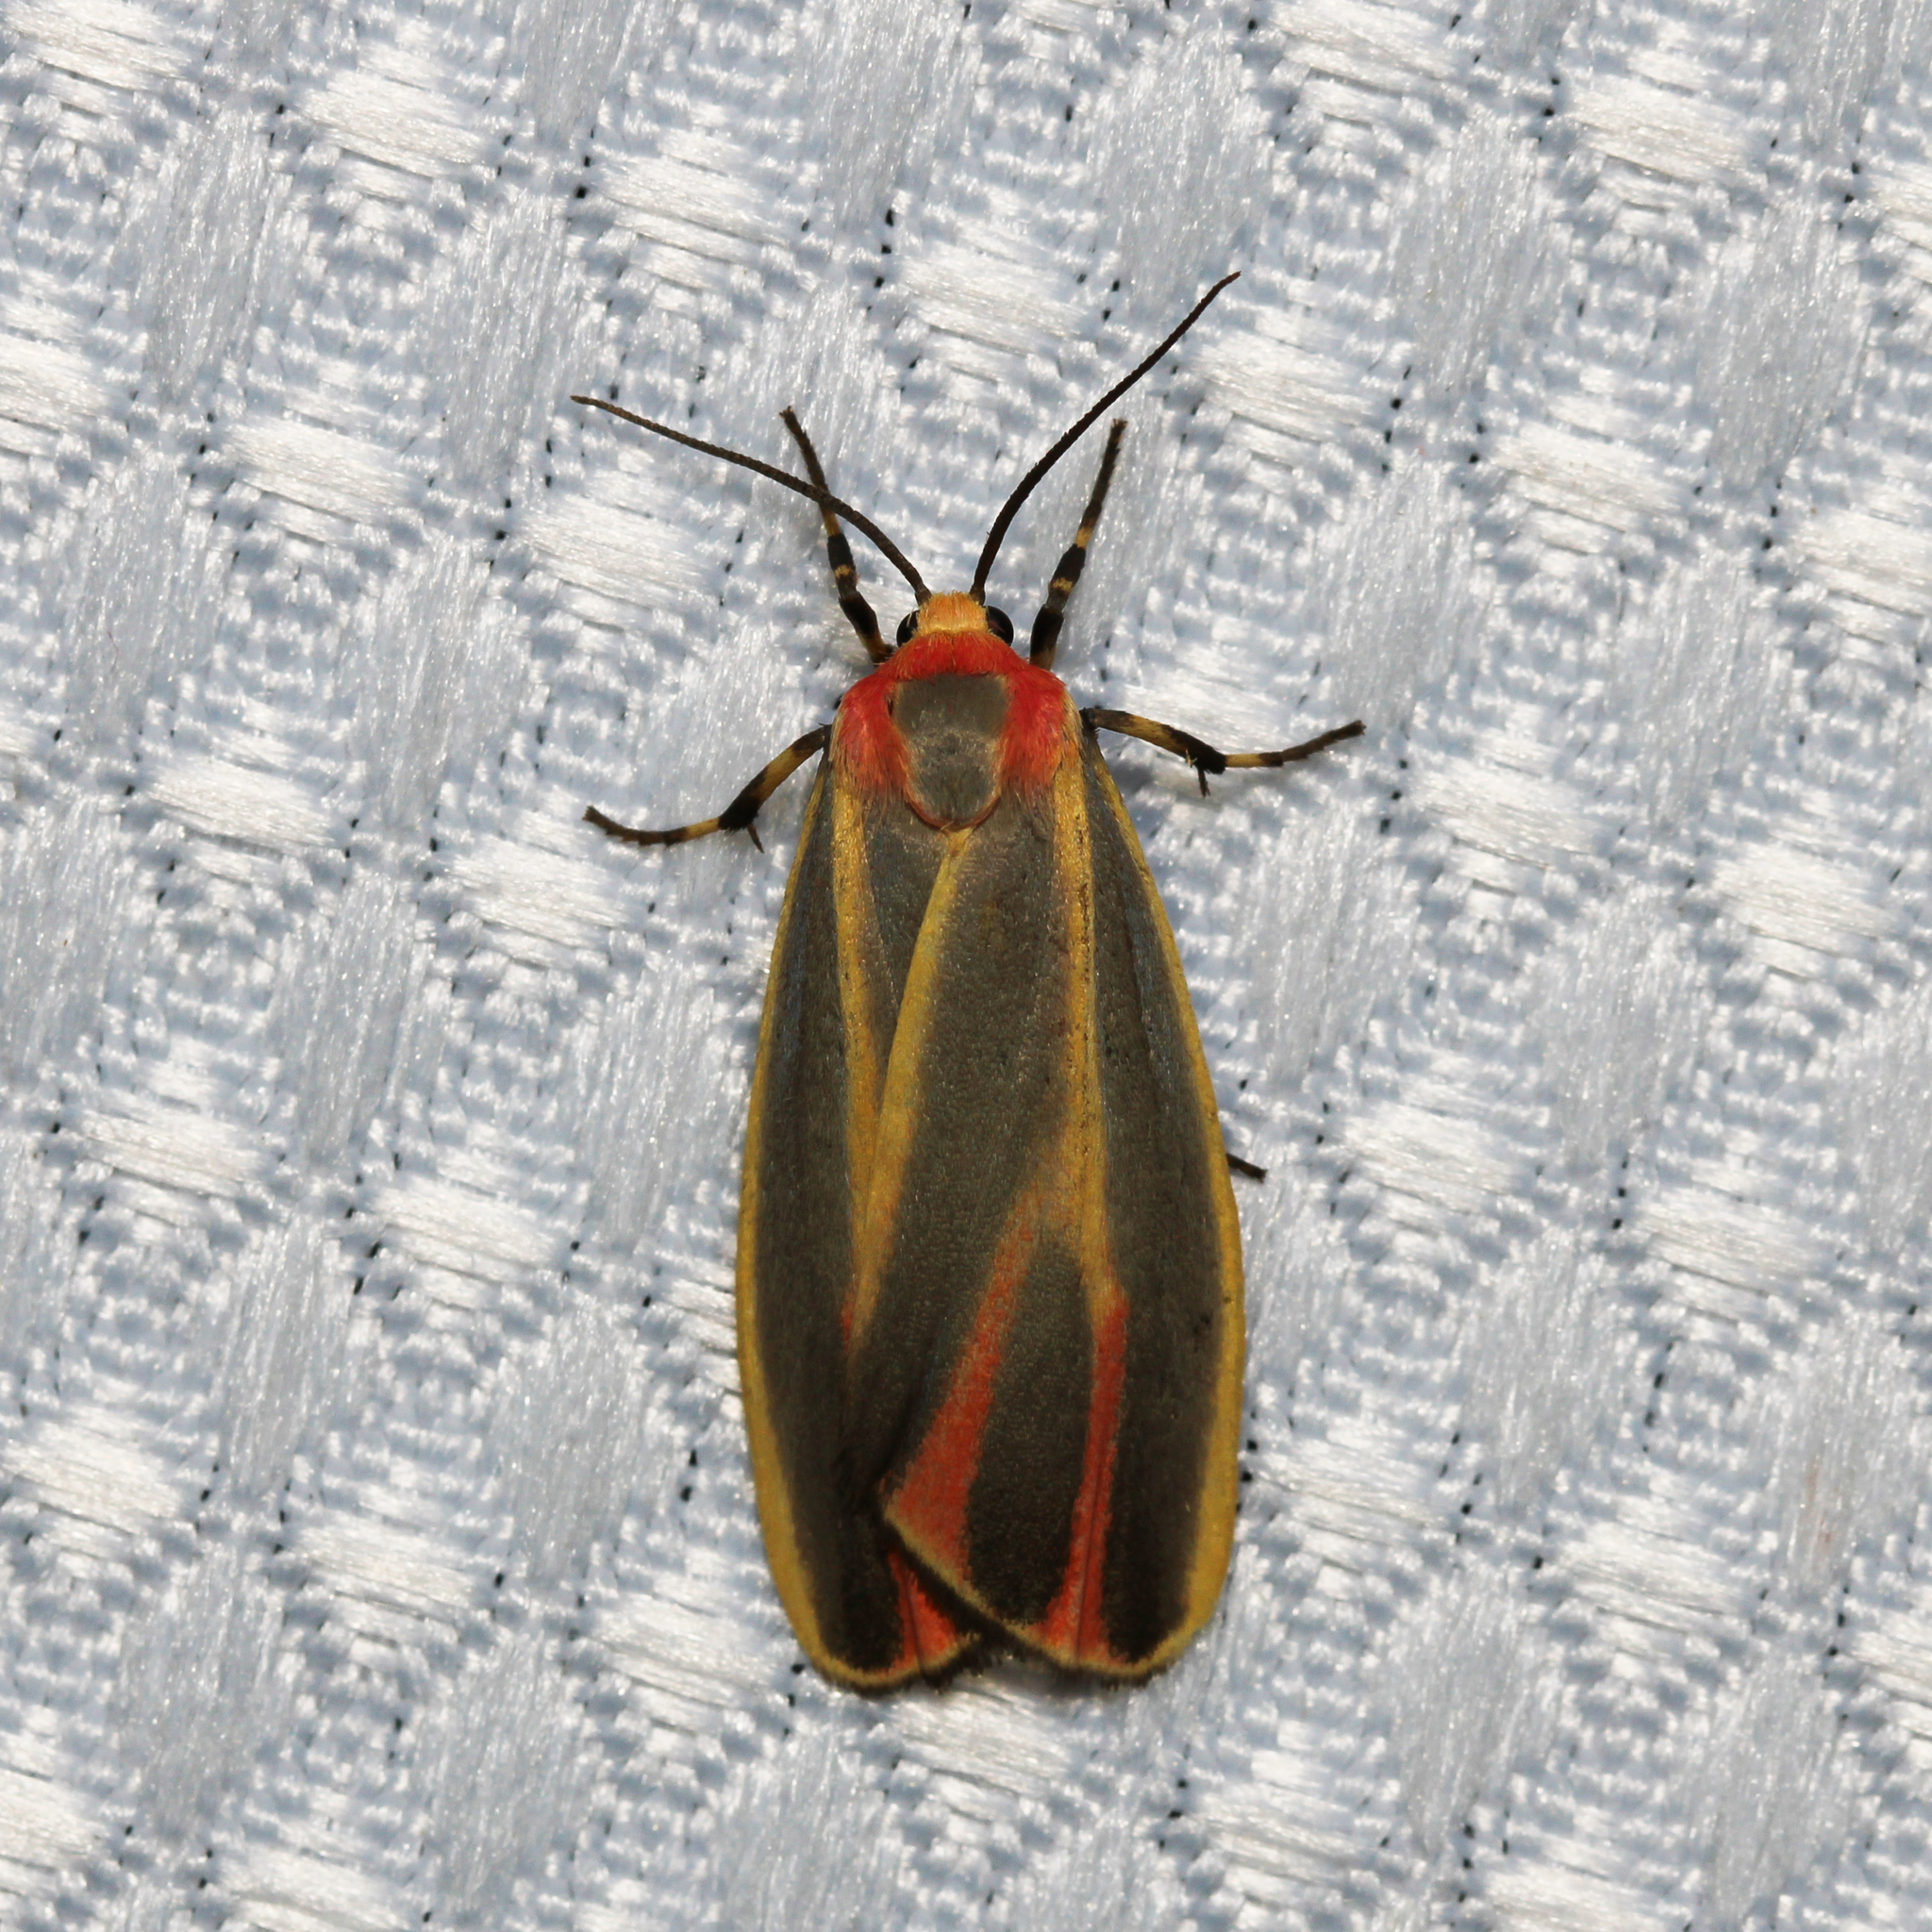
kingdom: Animalia
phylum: Arthropoda
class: Insecta
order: Lepidoptera
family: Erebidae
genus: Hypoprepia
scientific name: Hypoprepia fucosa
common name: Painted lichen moth
